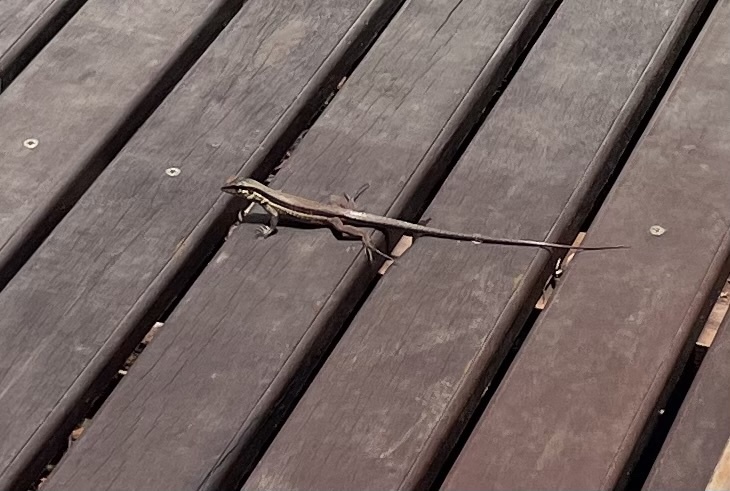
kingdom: Animalia
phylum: Chordata
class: Squamata
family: Teiidae
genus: Ameiva
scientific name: Ameiva ameiva
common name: Giant ameiva
